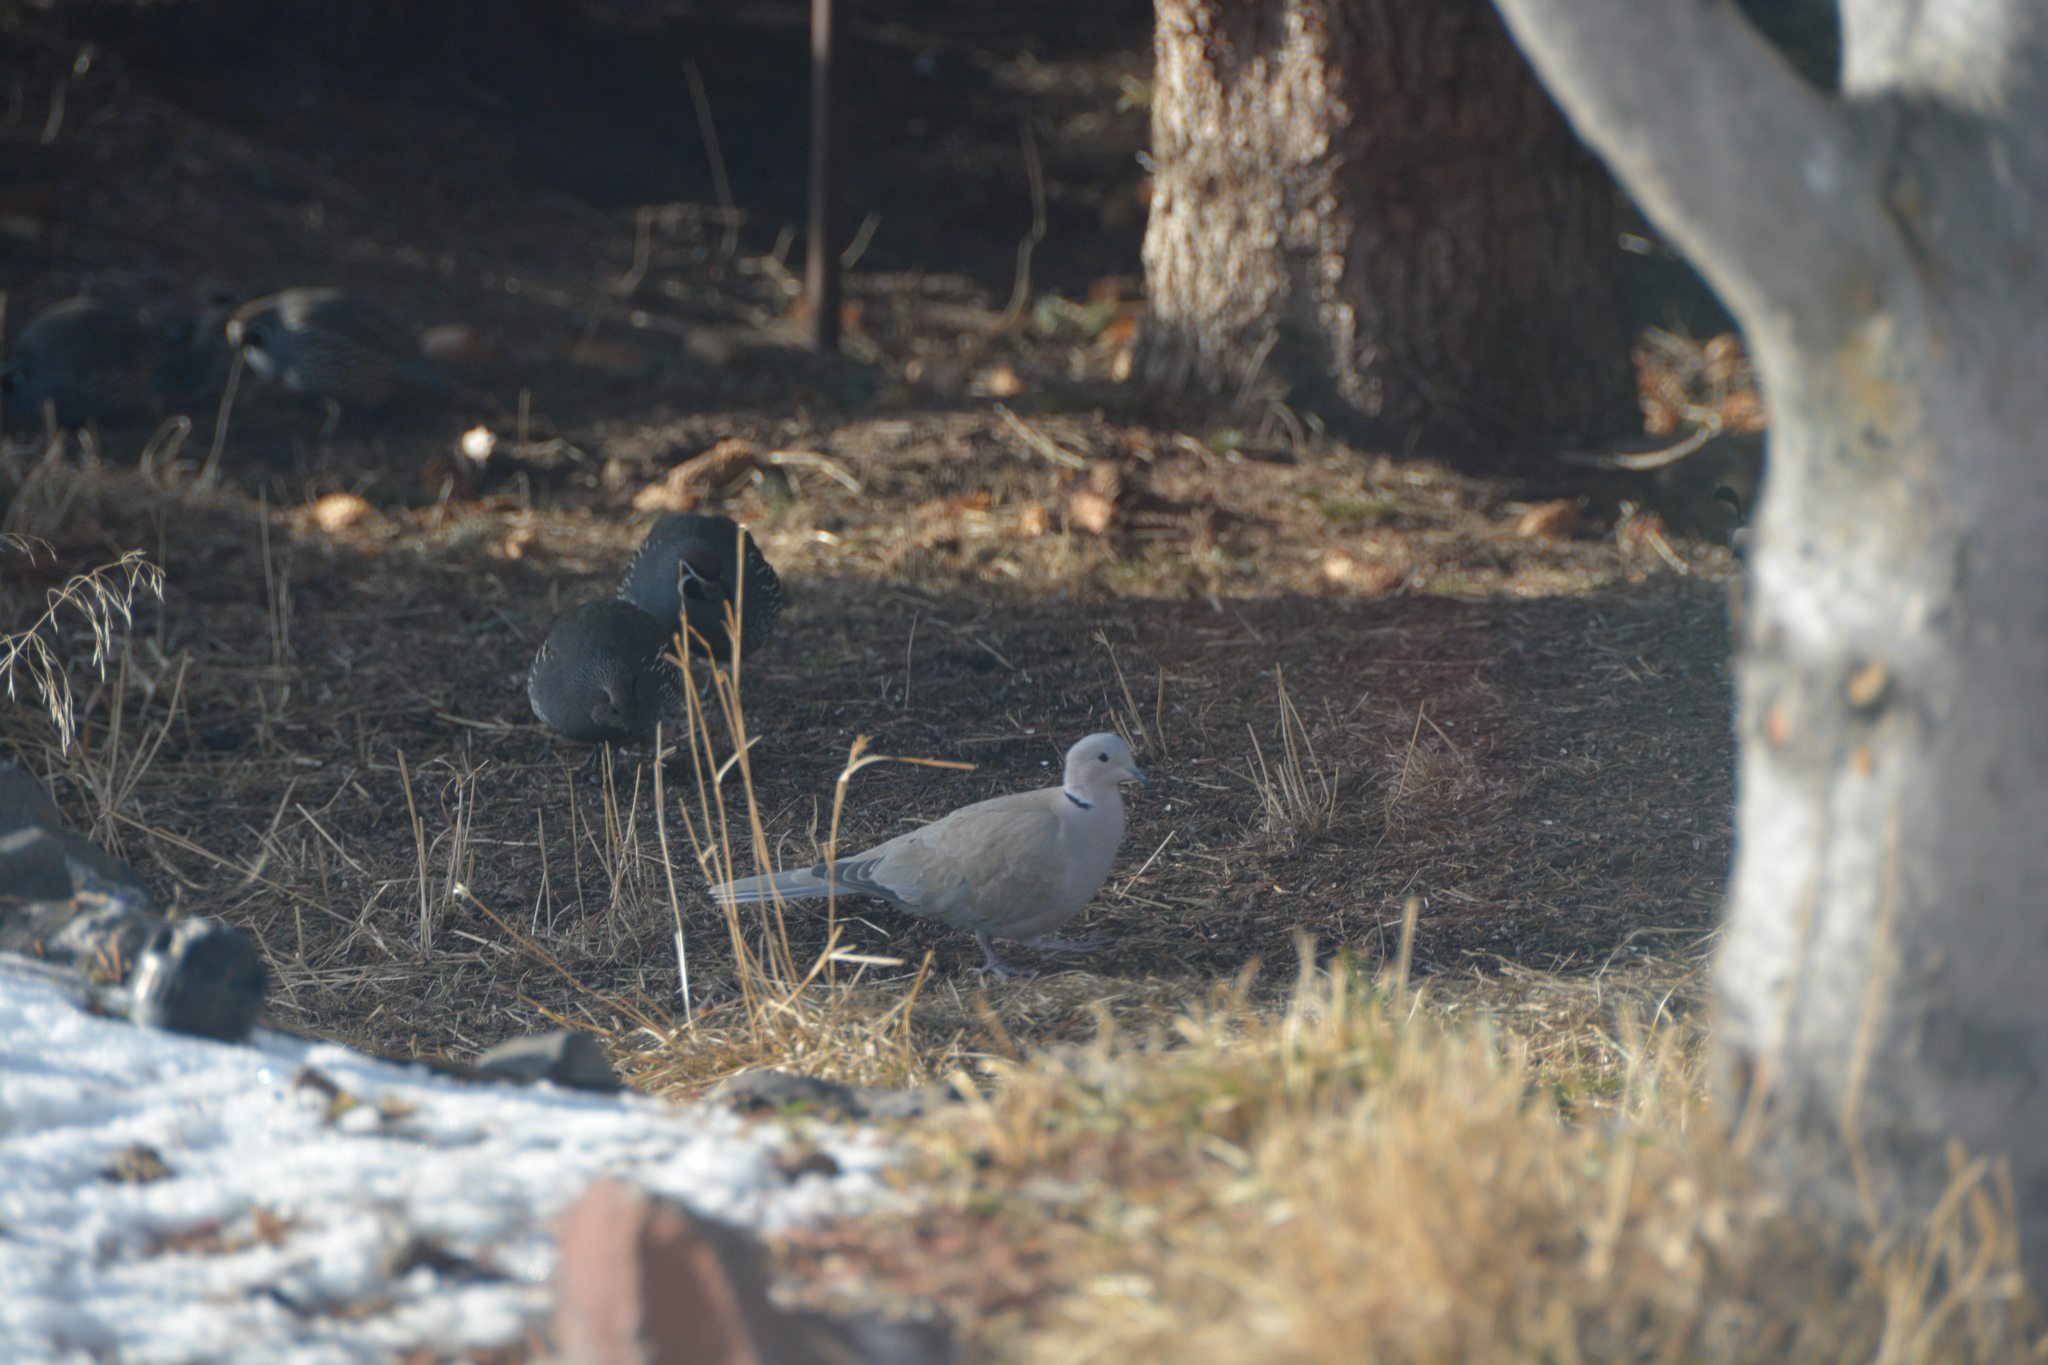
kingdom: Animalia
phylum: Chordata
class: Aves
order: Columbiformes
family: Columbidae
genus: Streptopelia
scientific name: Streptopelia decaocto
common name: Eurasian collared dove
